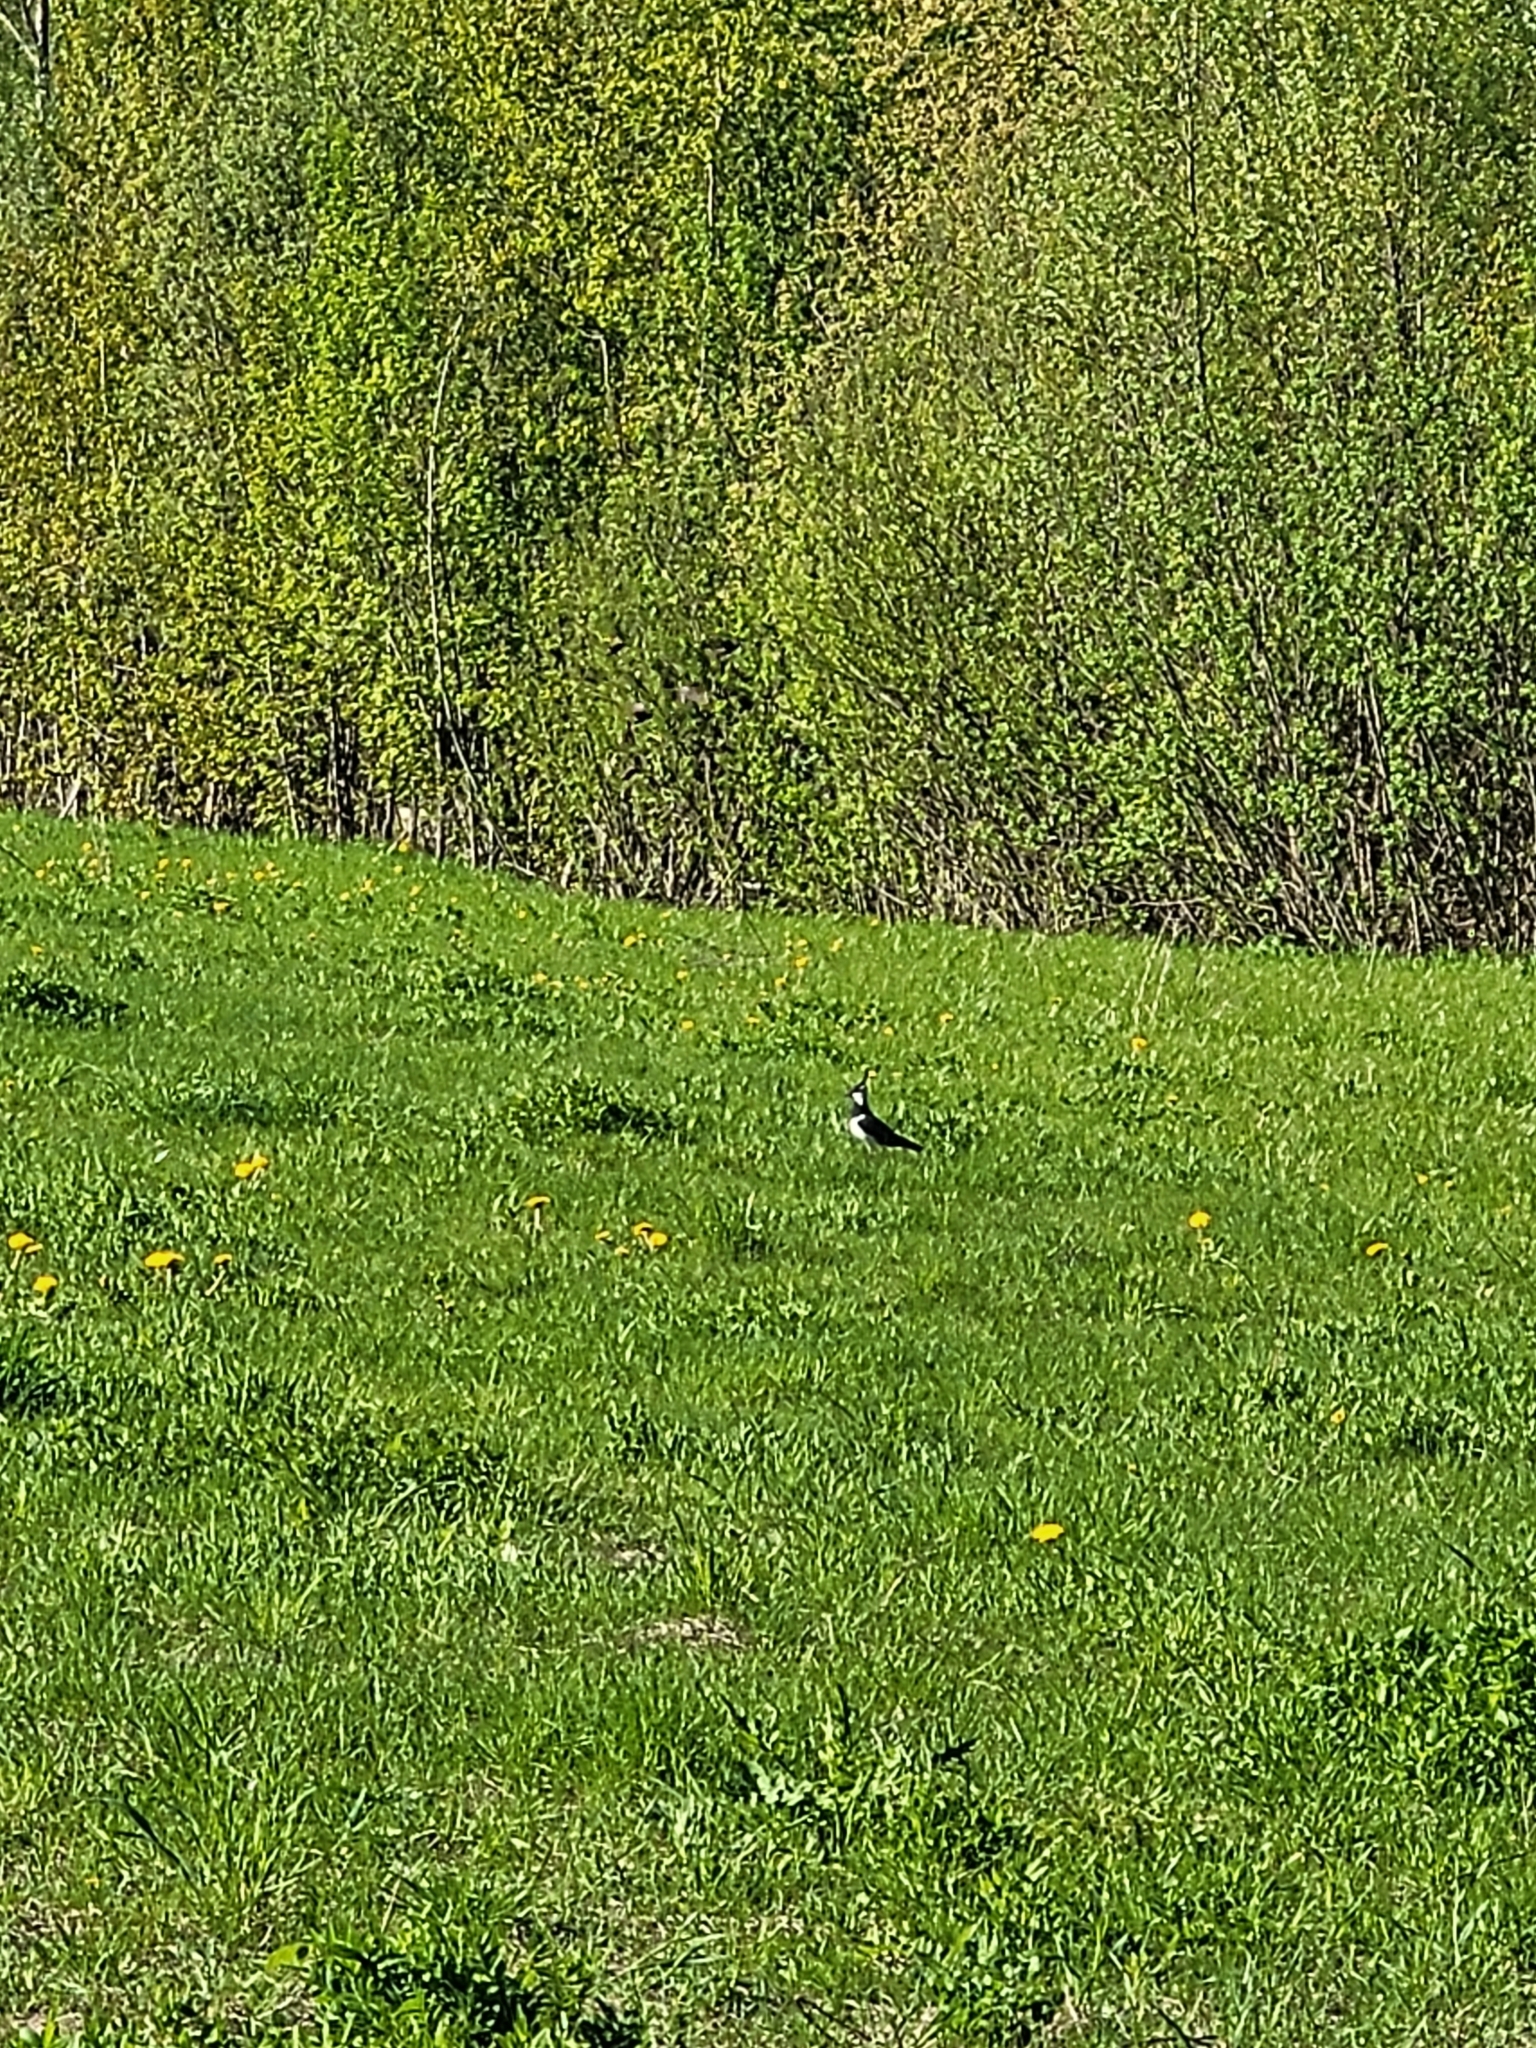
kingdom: Animalia
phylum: Chordata
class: Aves
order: Charadriiformes
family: Charadriidae
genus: Vanellus
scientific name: Vanellus vanellus
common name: Northern lapwing
